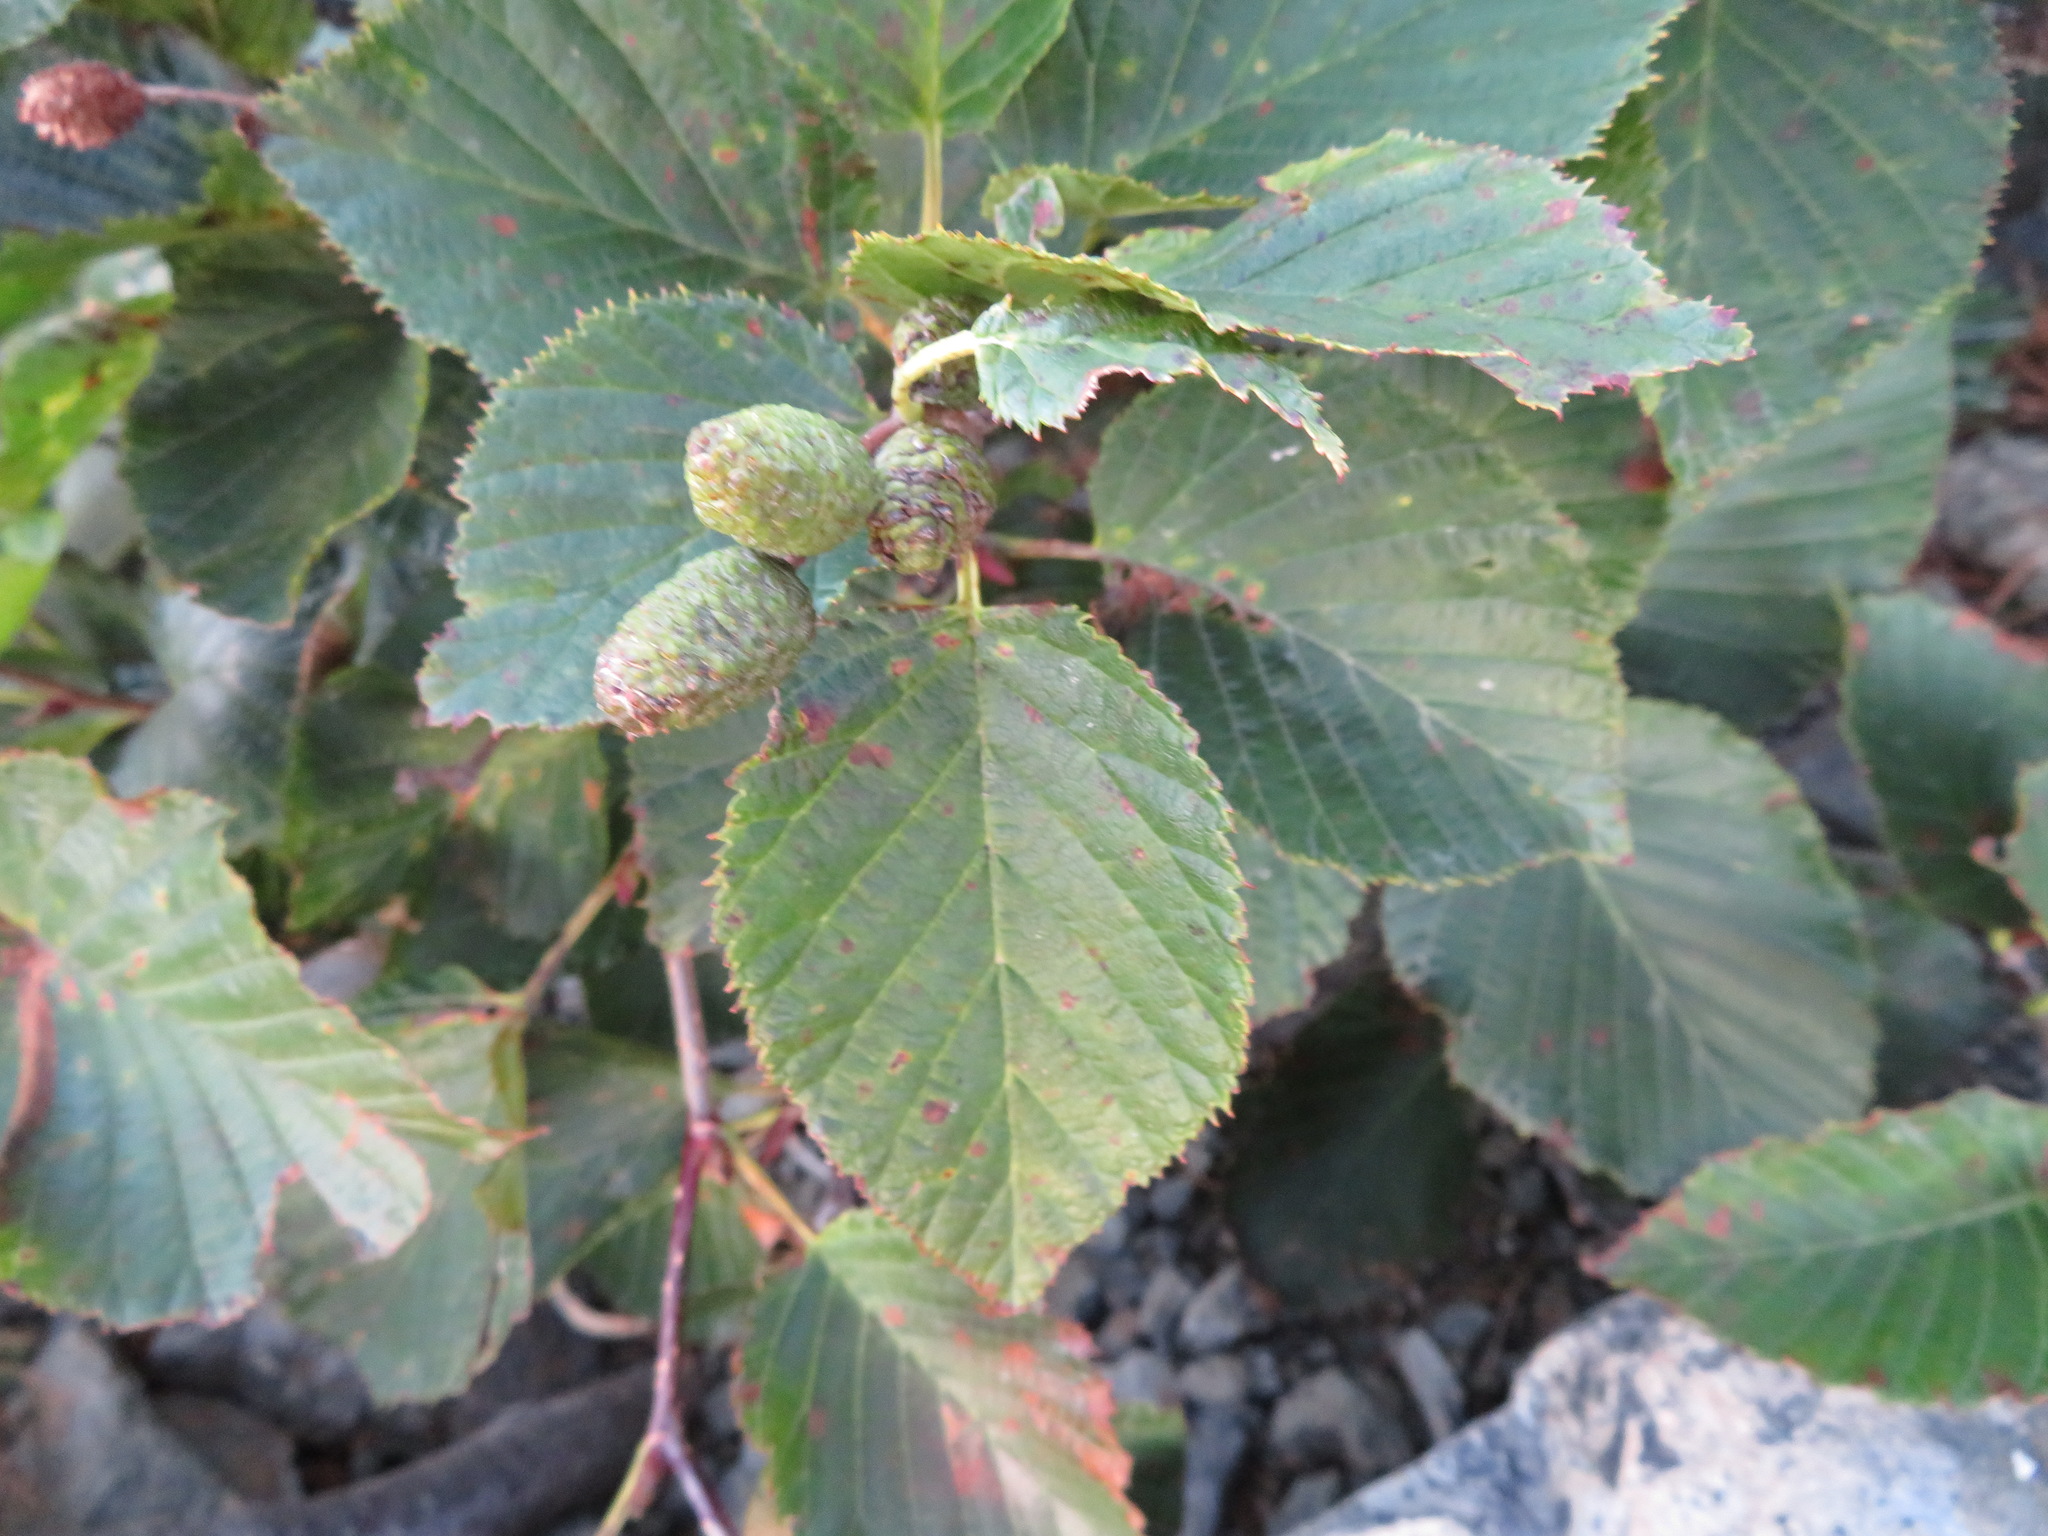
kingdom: Plantae
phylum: Tracheophyta
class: Magnoliopsida
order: Fagales
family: Betulaceae
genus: Alnus
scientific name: Alnus maximowiczii
